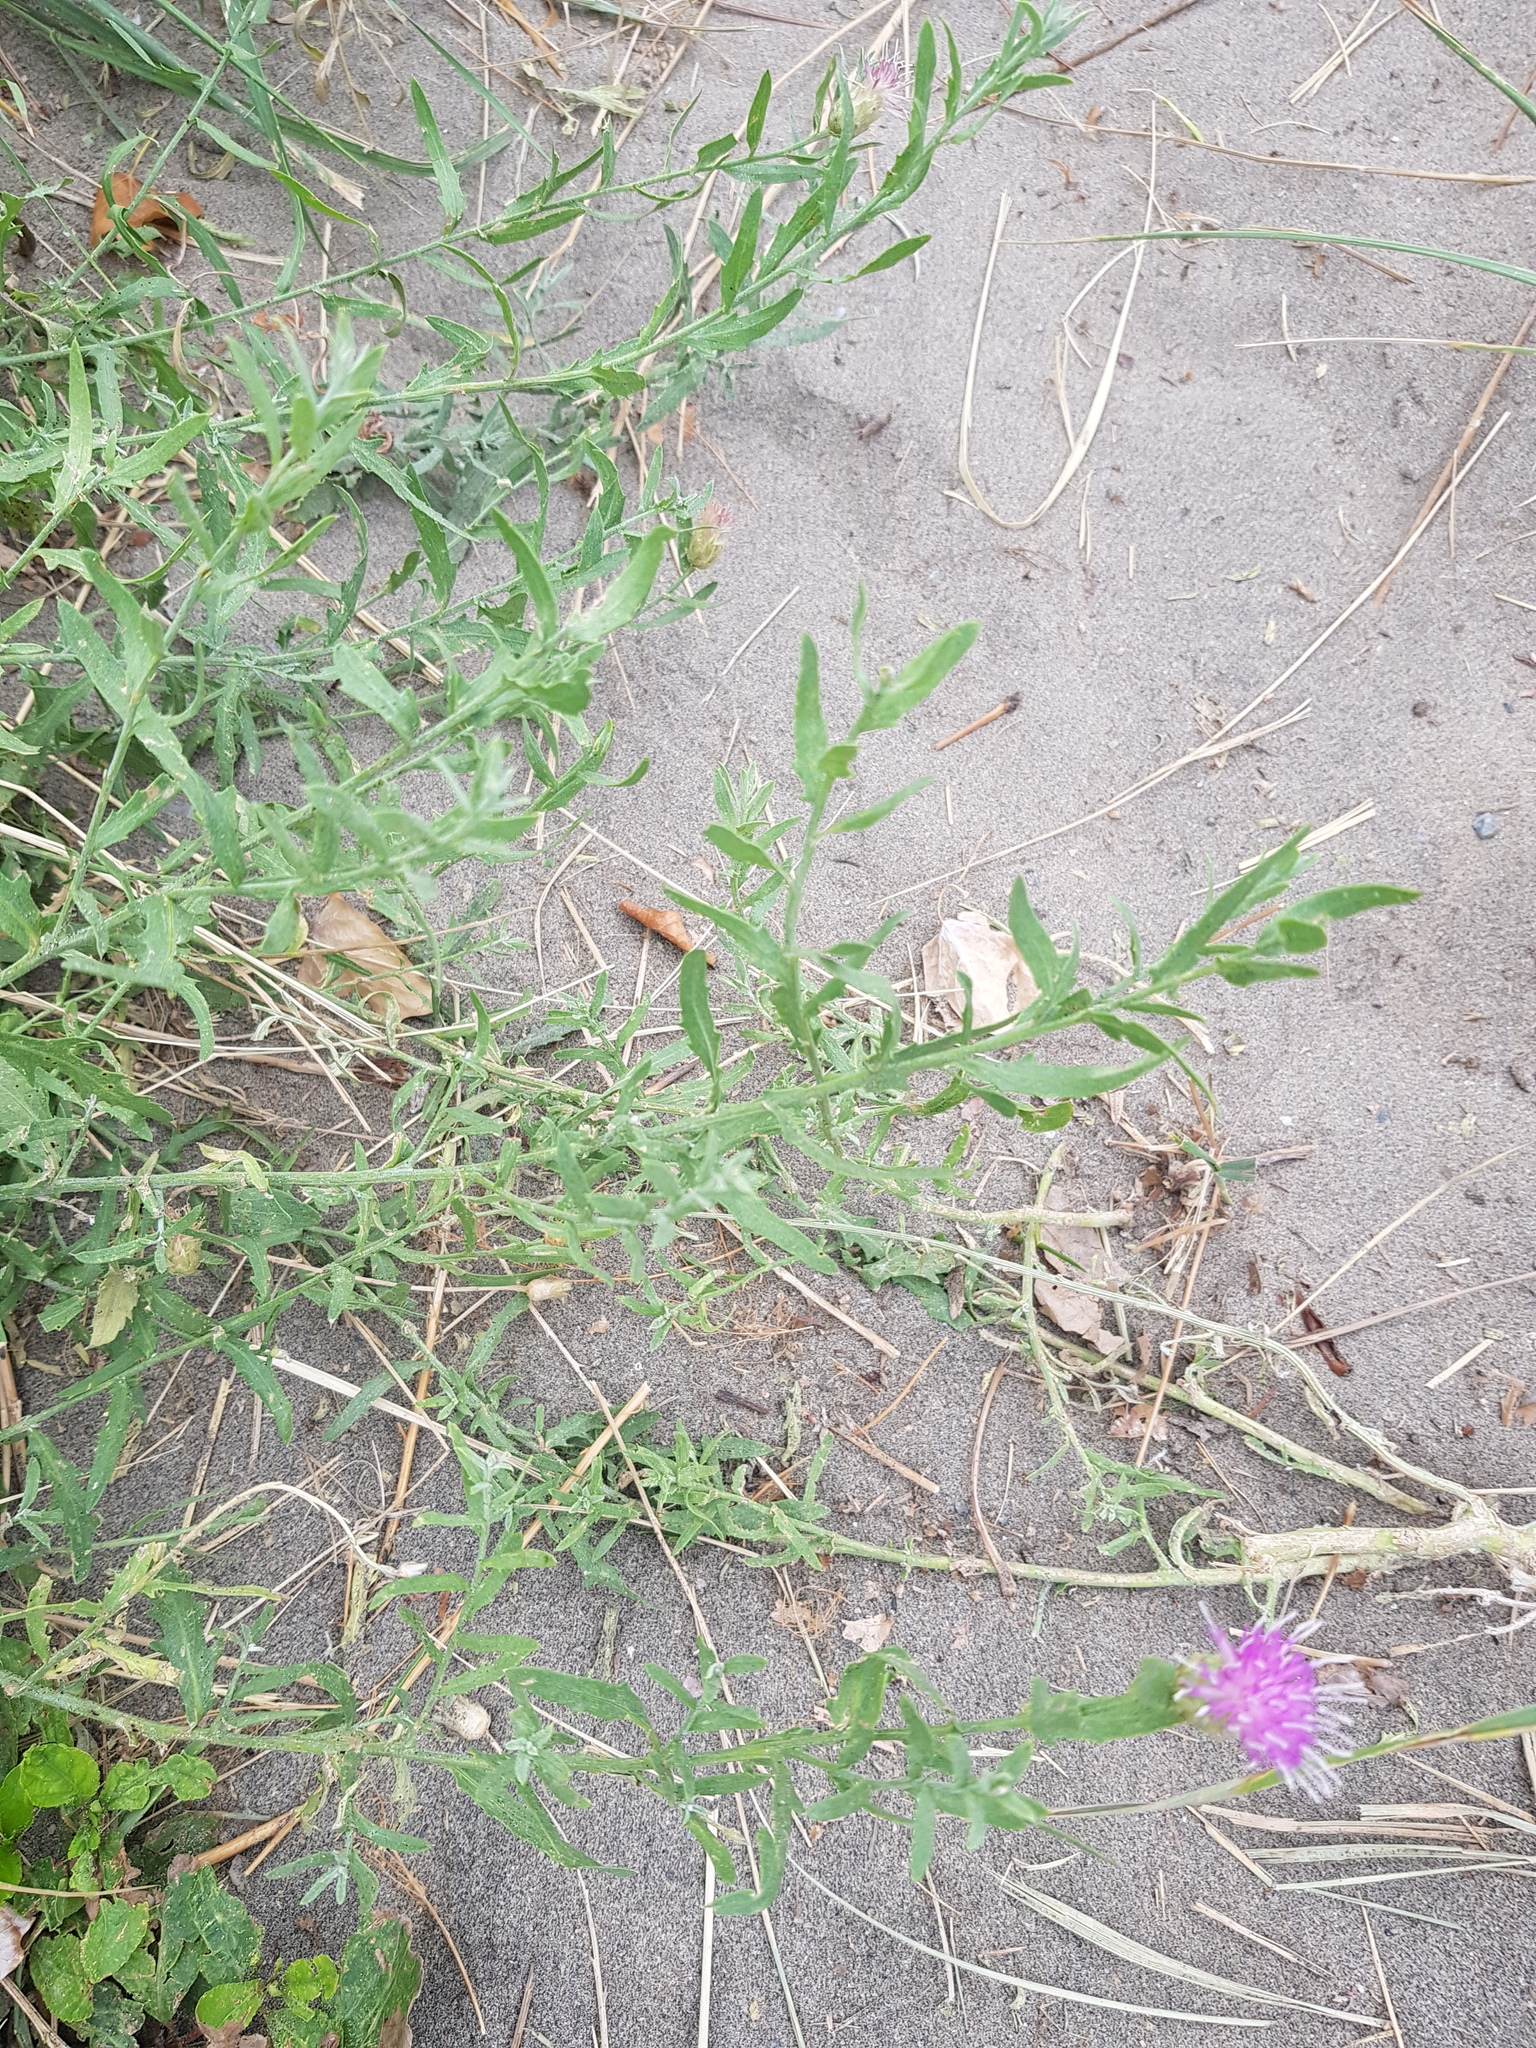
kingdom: Plantae
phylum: Tracheophyta
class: Magnoliopsida
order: Asterales
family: Asteraceae
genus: Leuzea
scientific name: Leuzea repens
